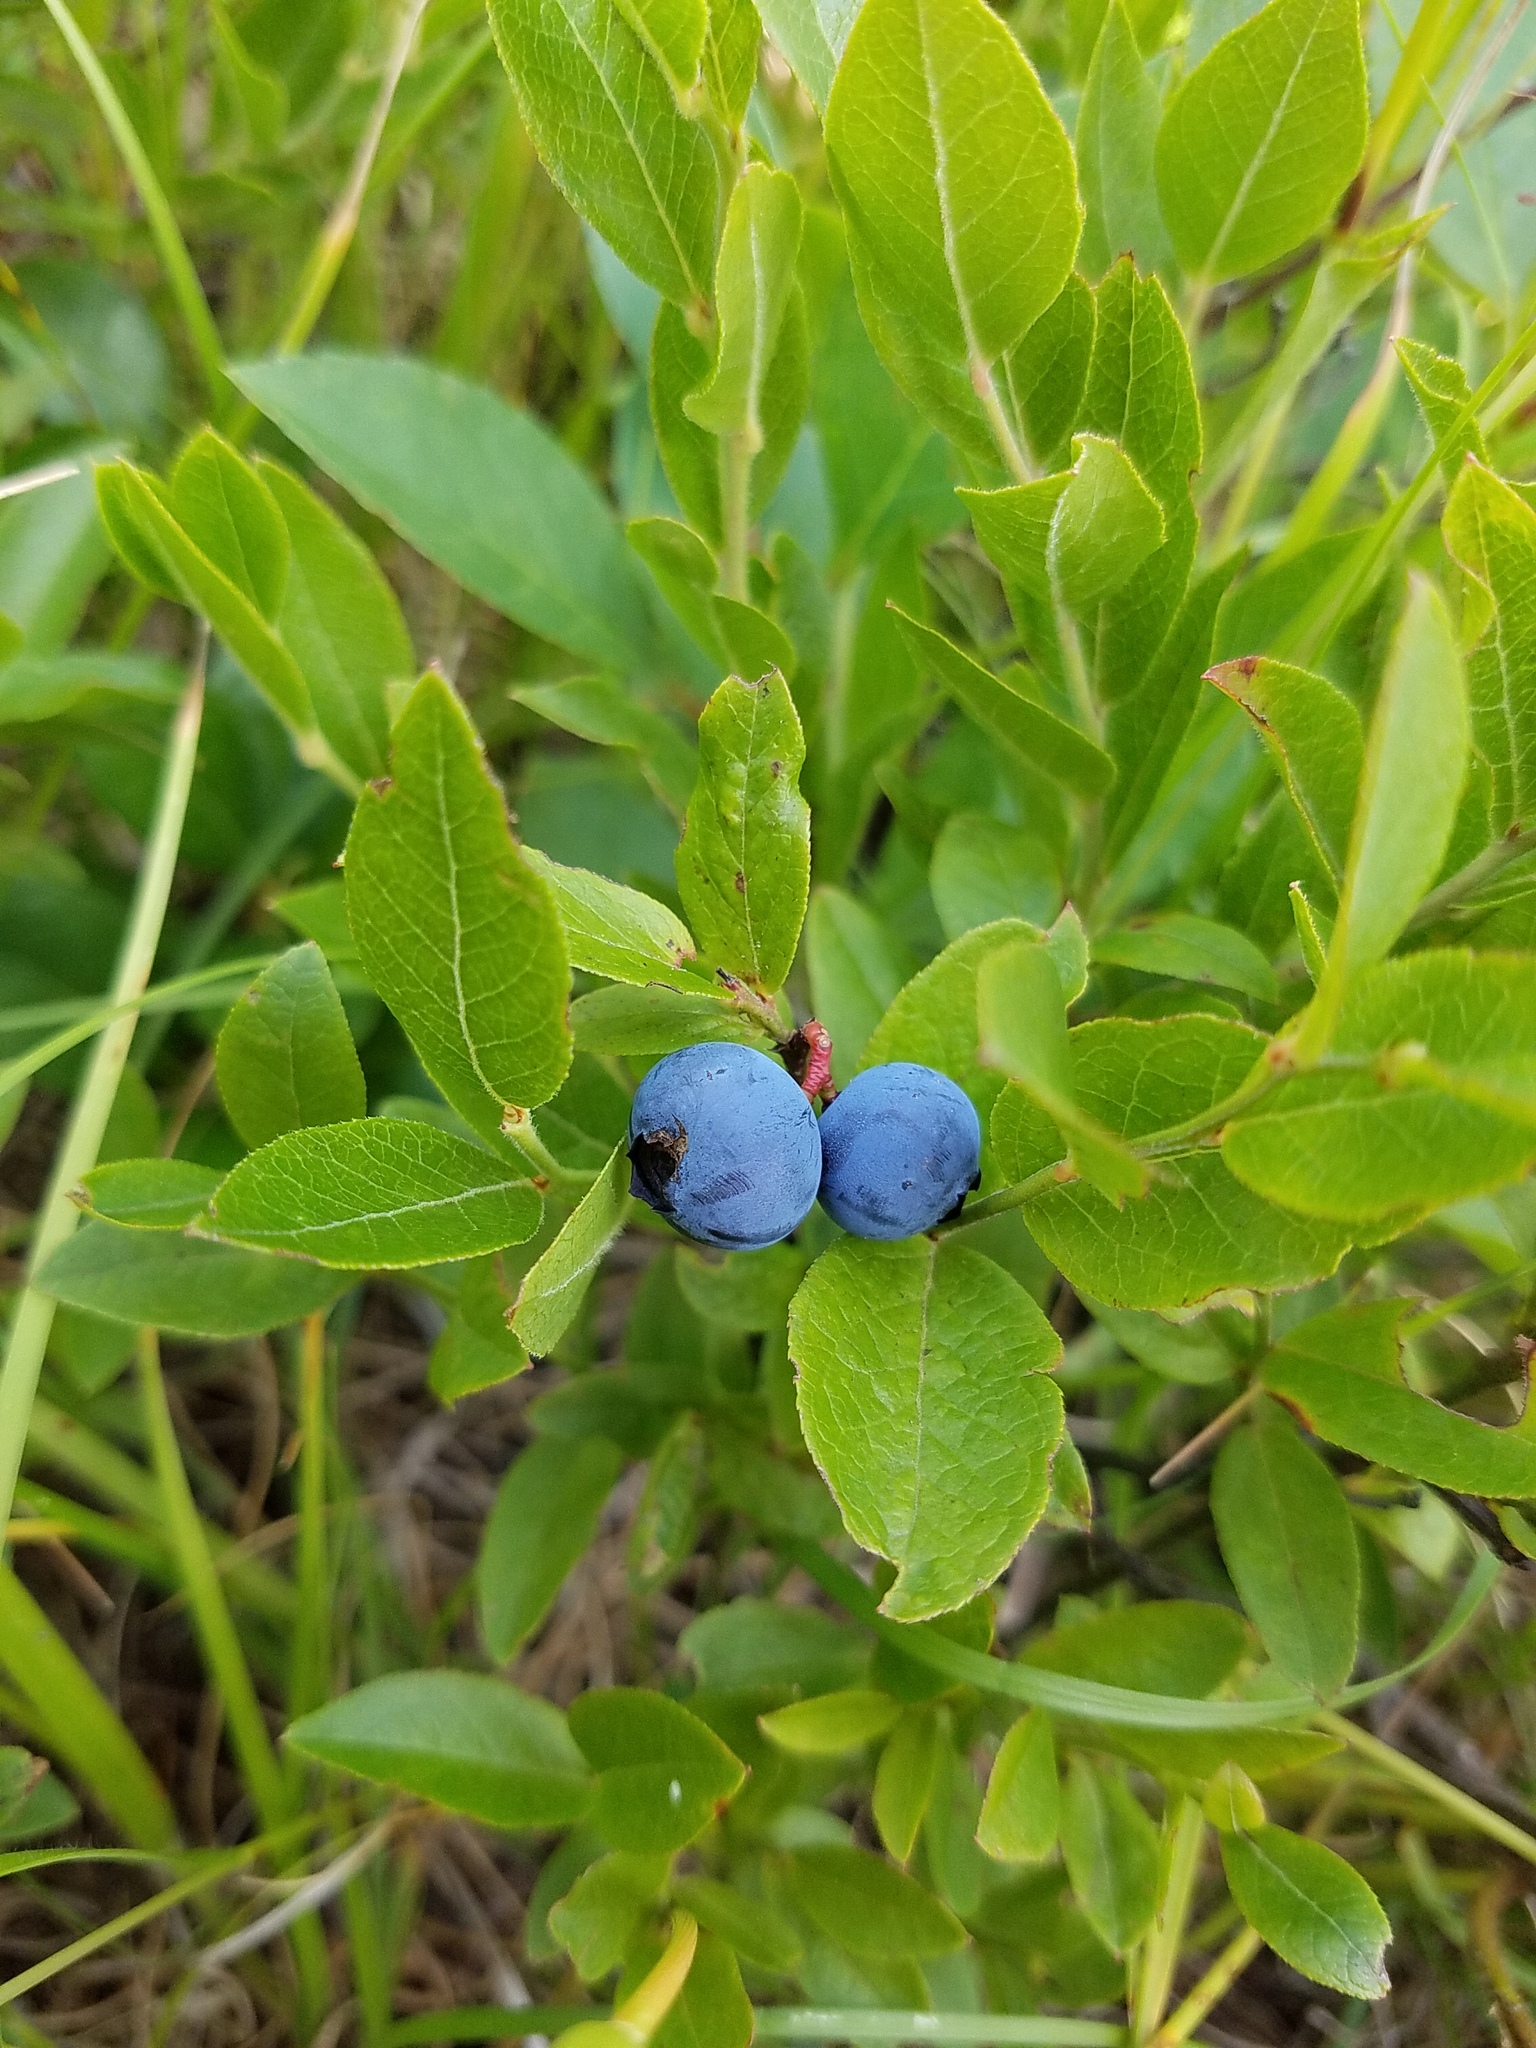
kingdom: Plantae
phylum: Tracheophyta
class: Magnoliopsida
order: Ericales
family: Ericaceae
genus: Vaccinium
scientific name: Vaccinium angustifolium
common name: Early lowbush blueberry
